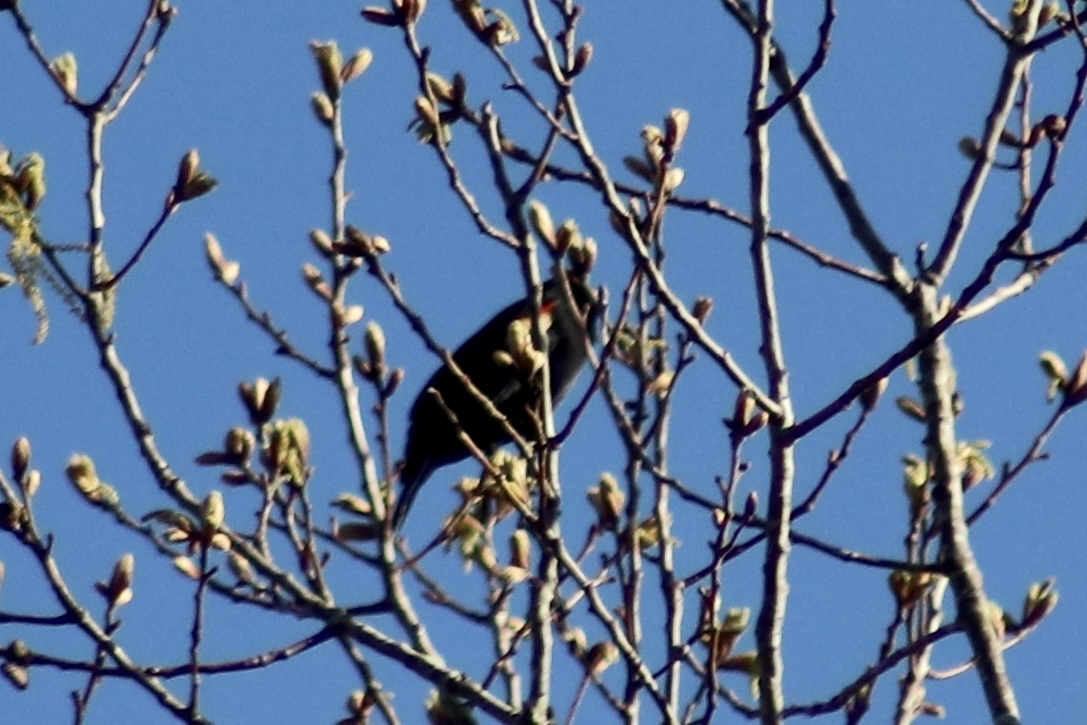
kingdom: Animalia
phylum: Chordata
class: Aves
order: Passeriformes
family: Icteridae
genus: Agelaius
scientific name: Agelaius phoeniceus
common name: Red-winged blackbird
